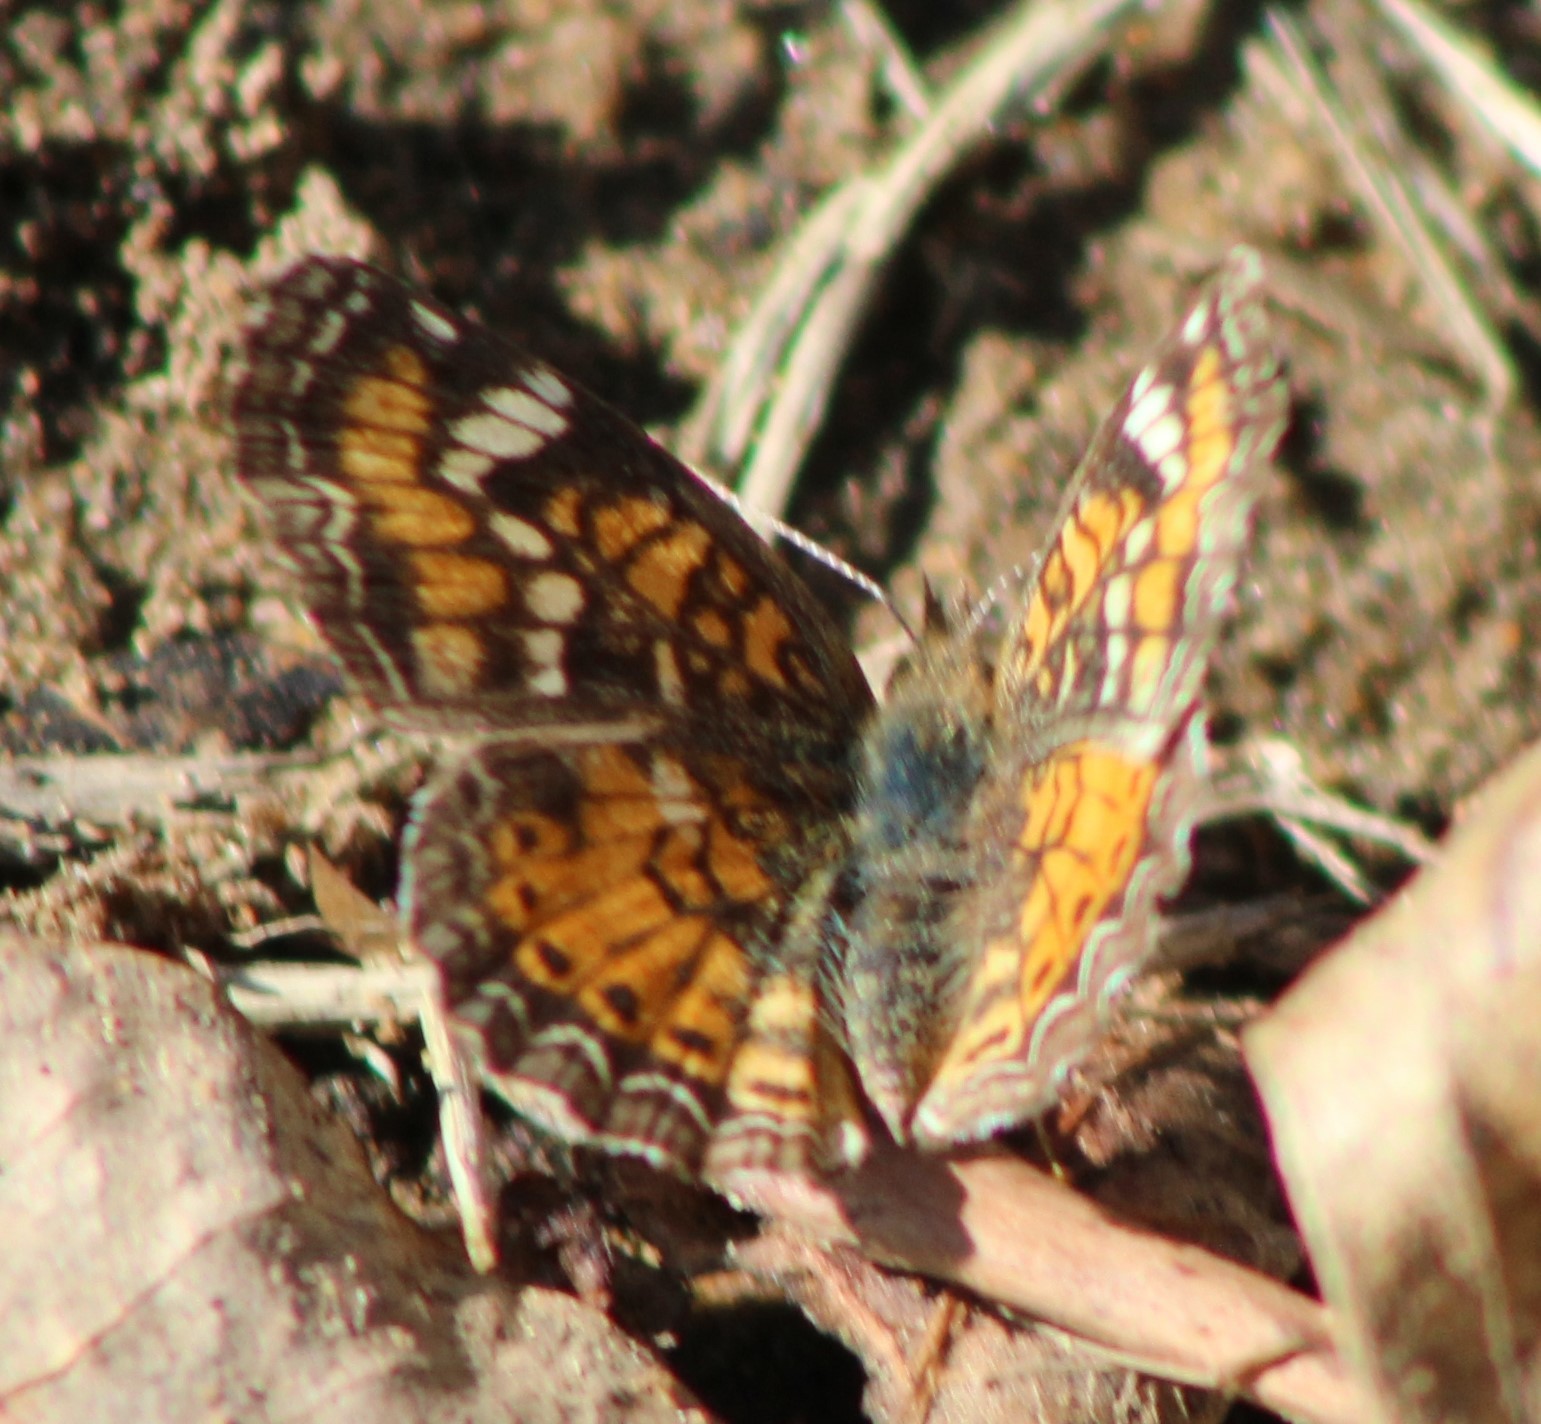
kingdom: Animalia
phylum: Arthropoda
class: Insecta
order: Lepidoptera
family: Nymphalidae
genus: Phyciodes
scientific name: Phyciodes phaon
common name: Phaon crescent
